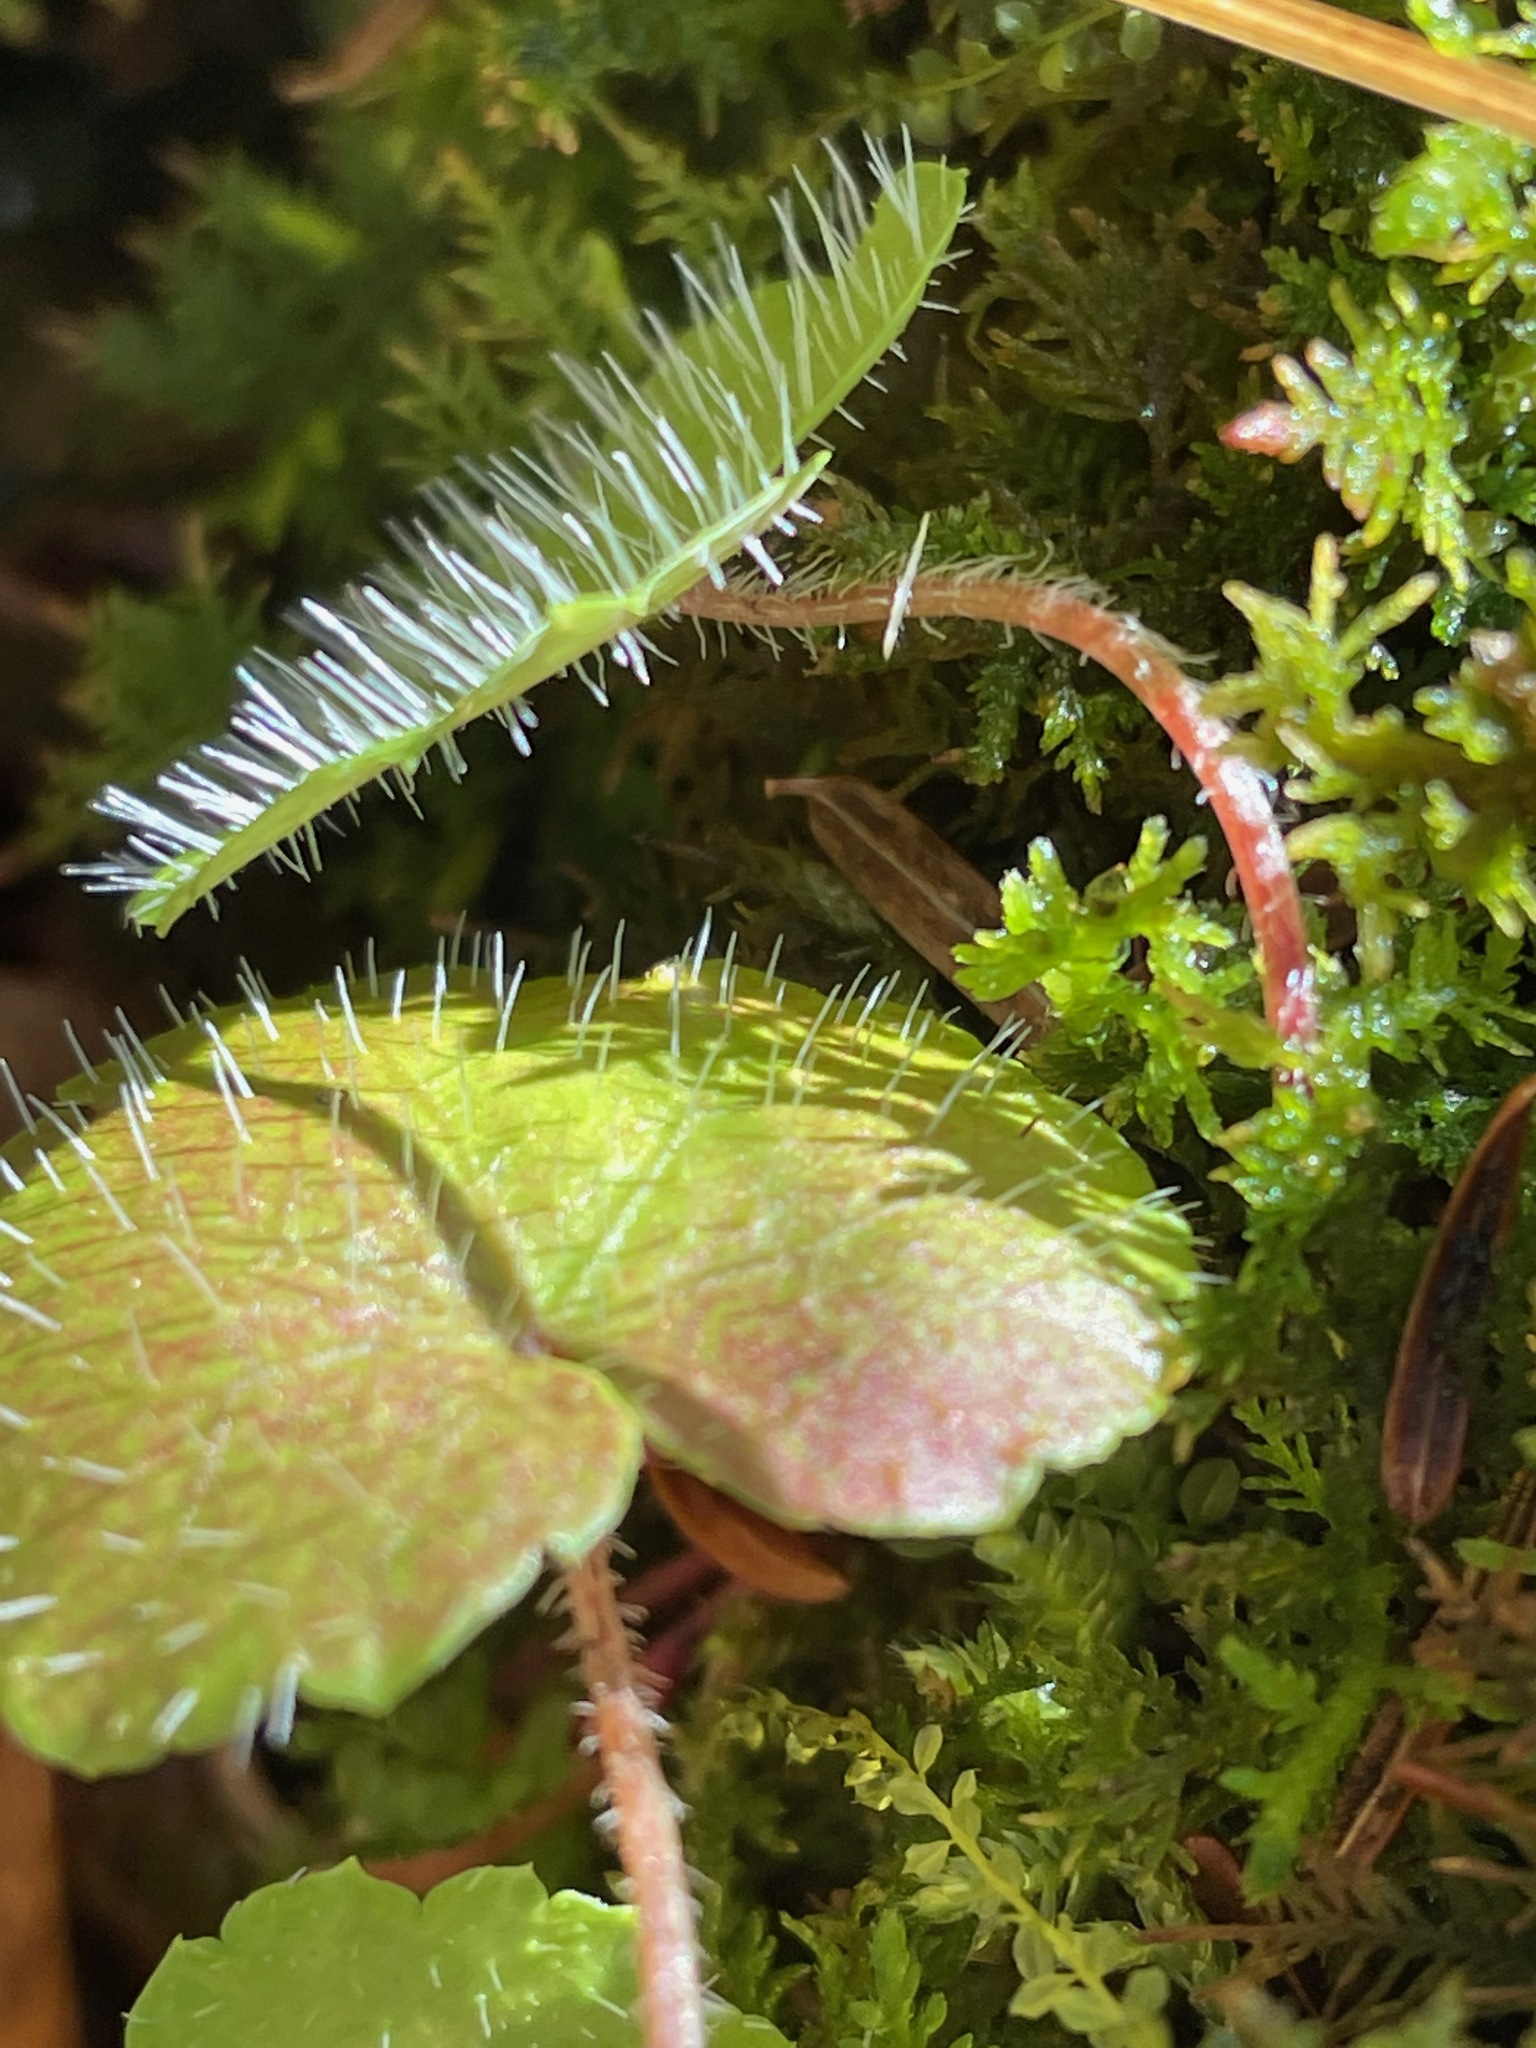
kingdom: Plantae
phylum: Tracheophyta
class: Magnoliopsida
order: Saxifragales
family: Saxifragaceae
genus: Mitella
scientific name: Mitella nuda
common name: Bare-stemmed bishop's-cap
